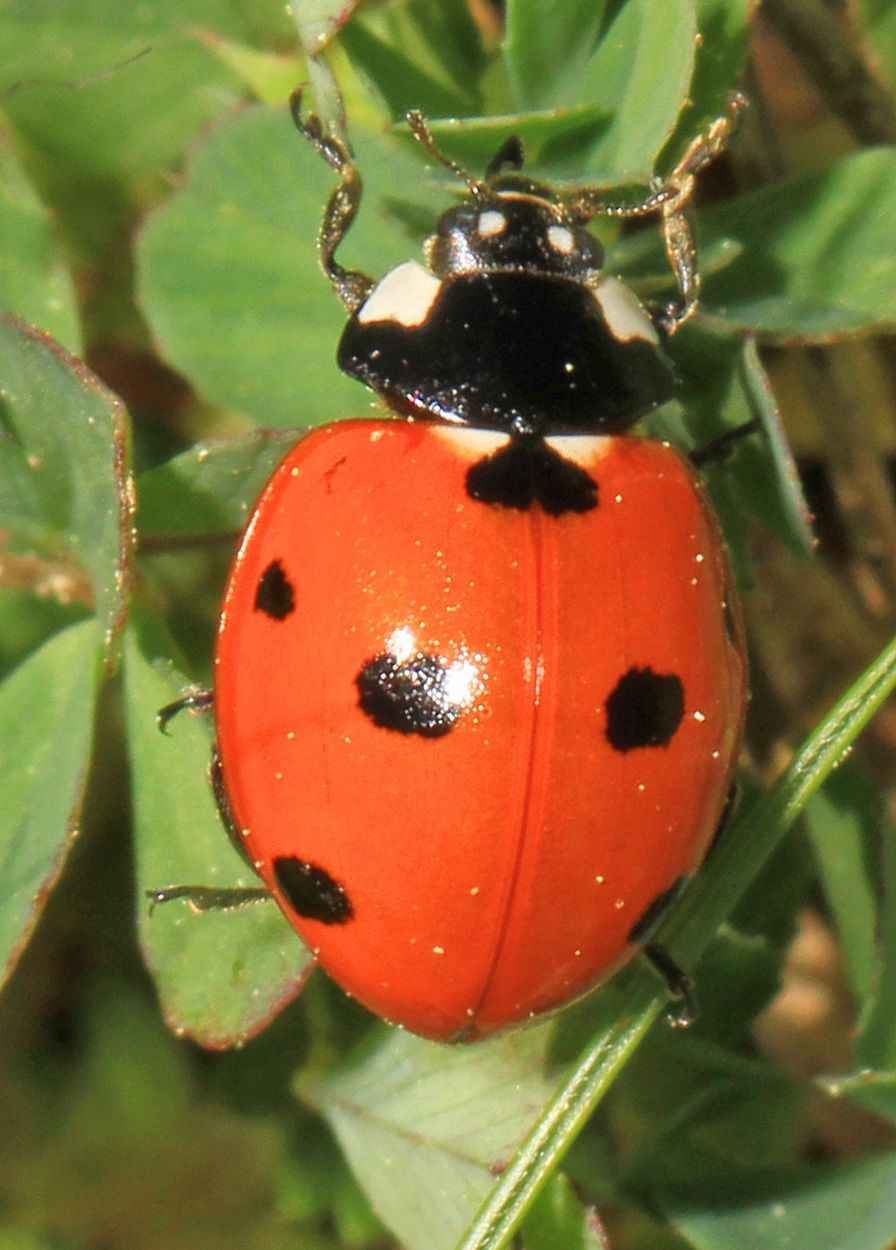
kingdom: Animalia
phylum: Arthropoda
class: Insecta
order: Coleoptera
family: Coccinellidae
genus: Coccinella
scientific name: Coccinella septempunctata
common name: Sevenspotted lady beetle
